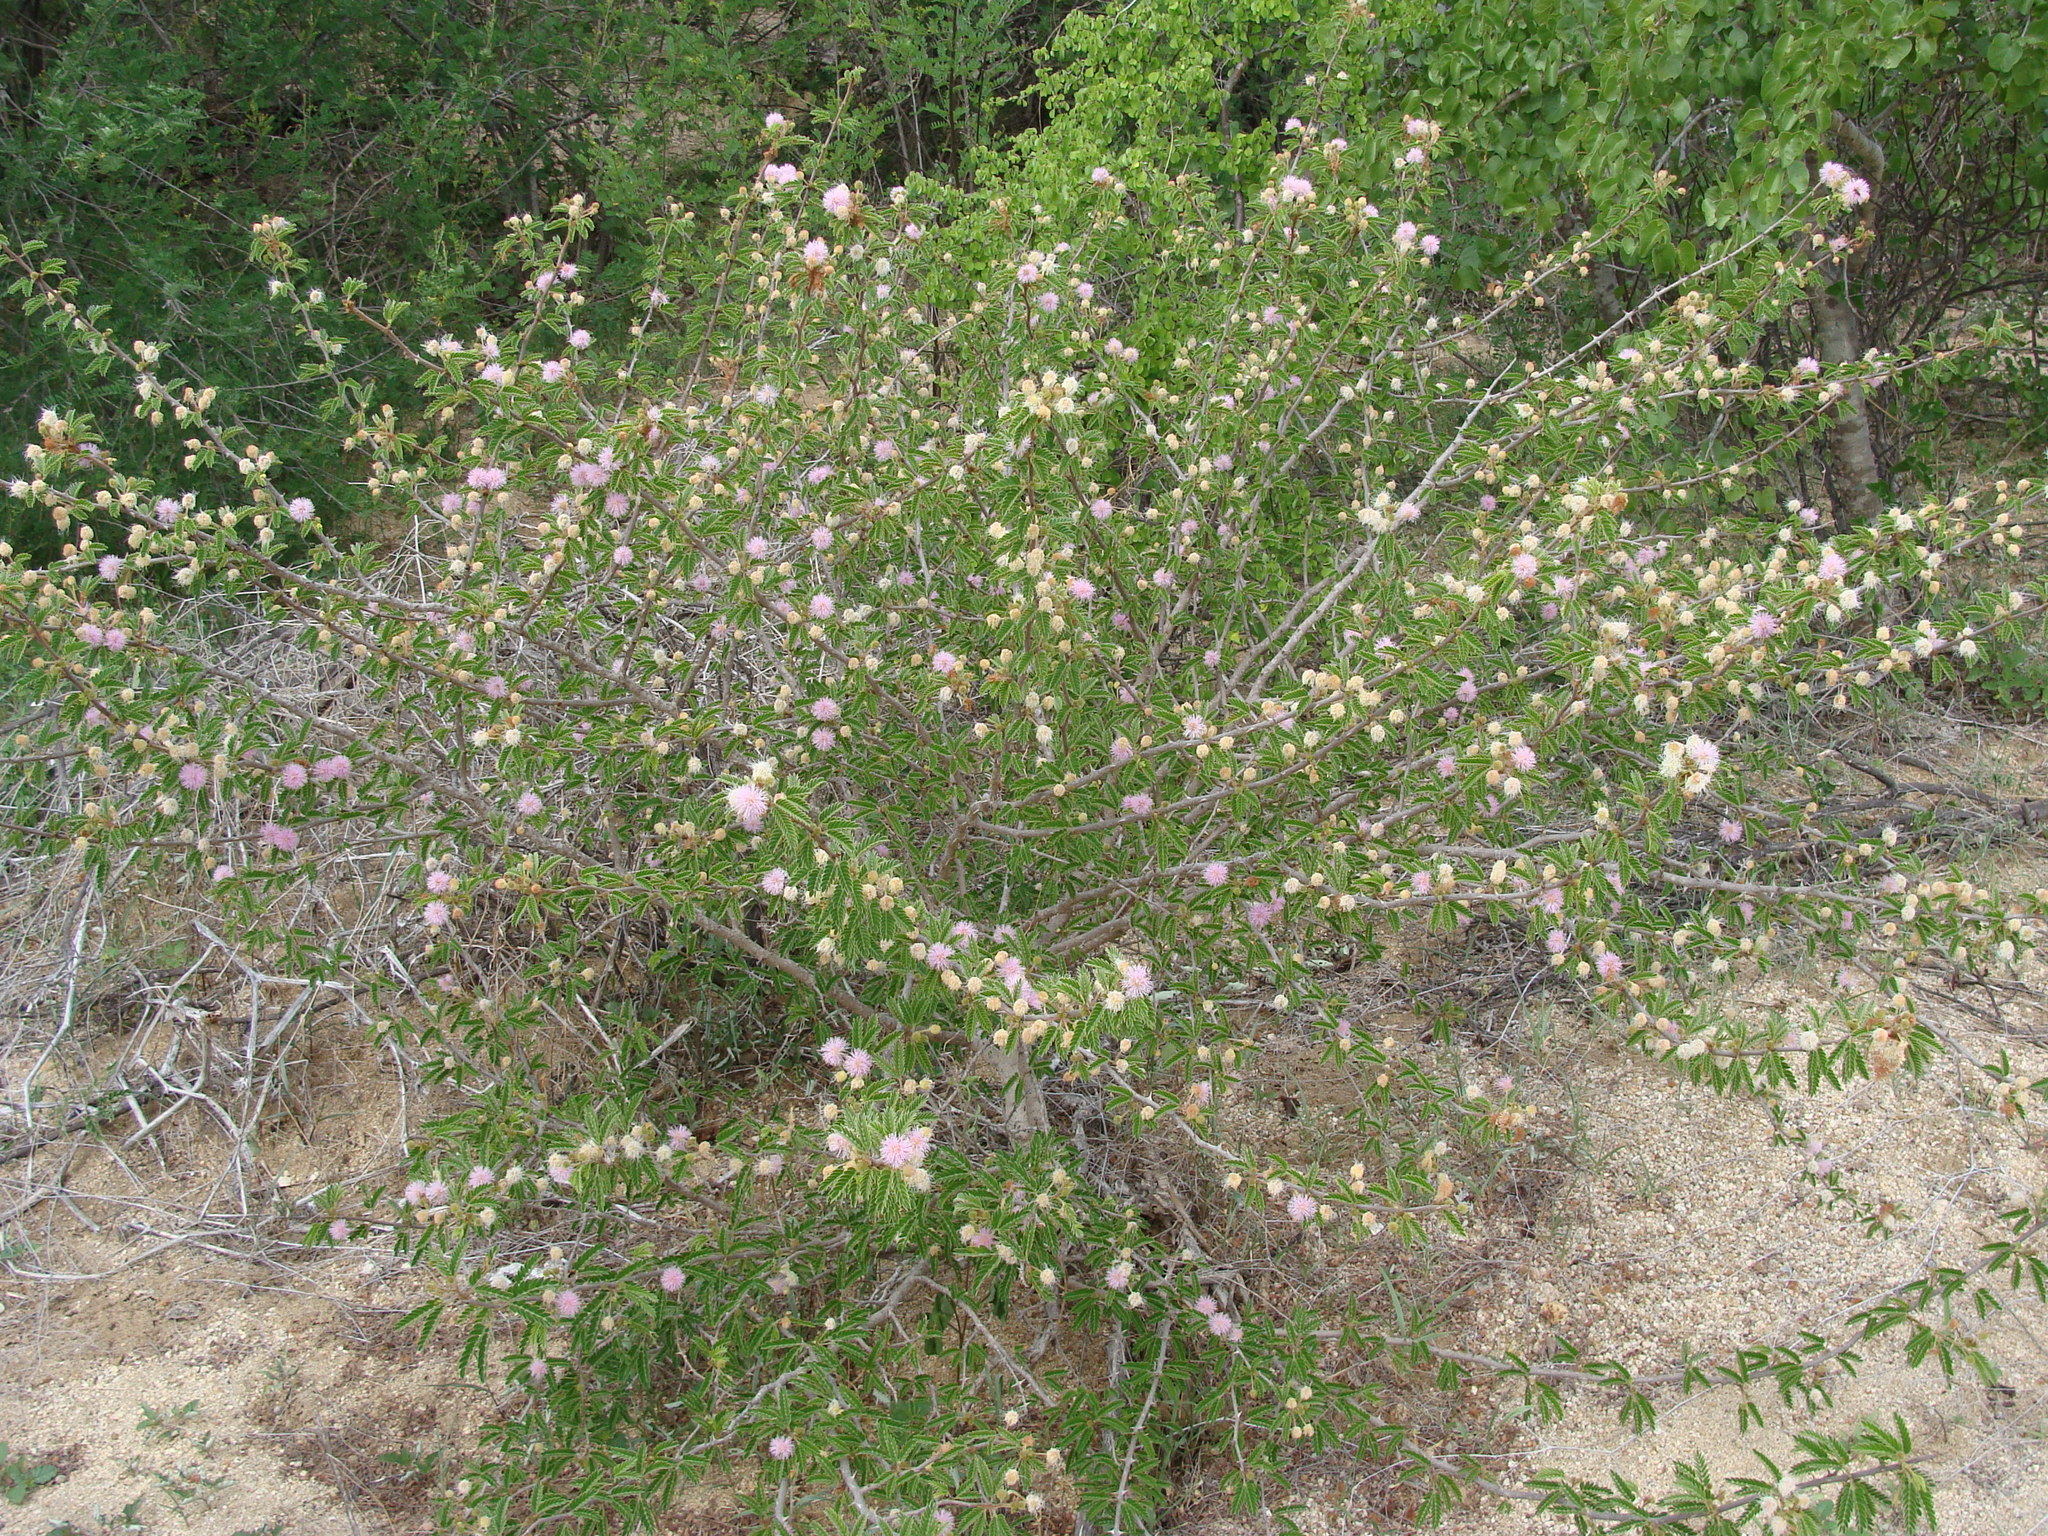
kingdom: Plantae
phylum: Tracheophyta
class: Magnoliopsida
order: Fabales
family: Fabaceae
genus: Mimosa
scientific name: Mimosa tricephala
